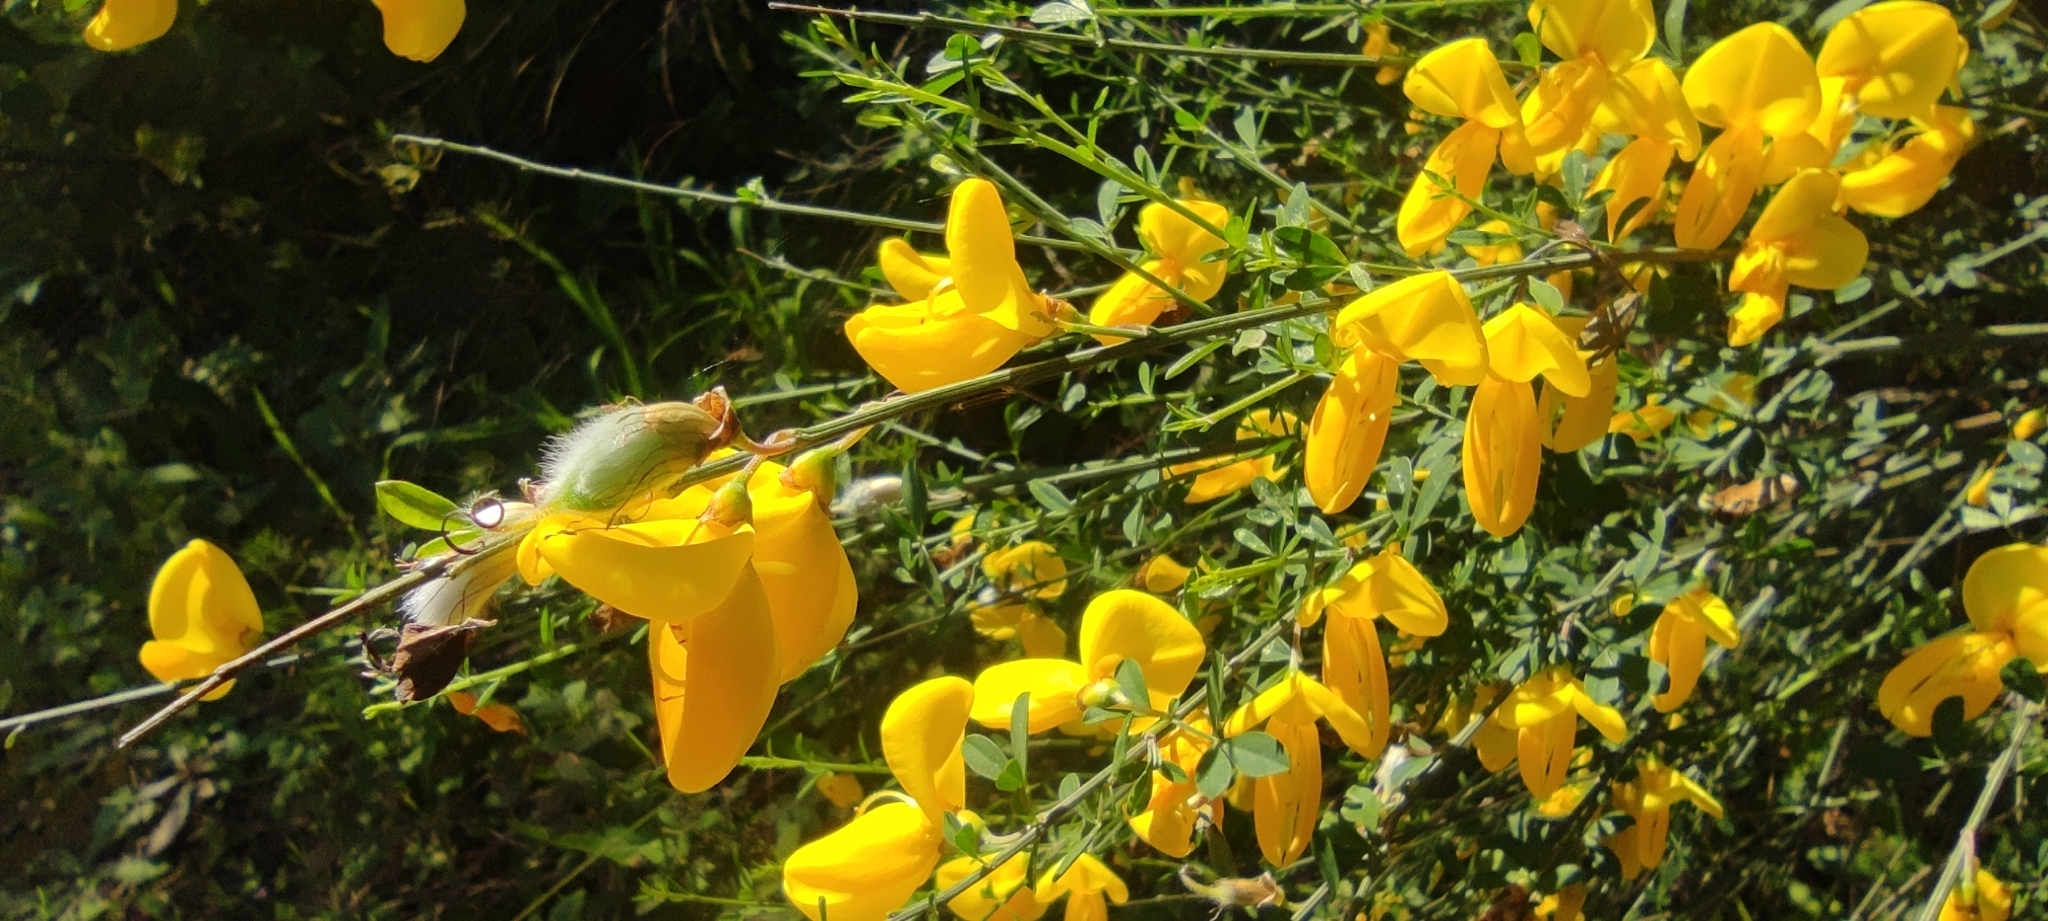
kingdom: Plantae
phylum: Tracheophyta
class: Magnoliopsida
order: Fabales
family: Fabaceae
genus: Cytisus
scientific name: Cytisus striatus
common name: Hairy-fruited broom
